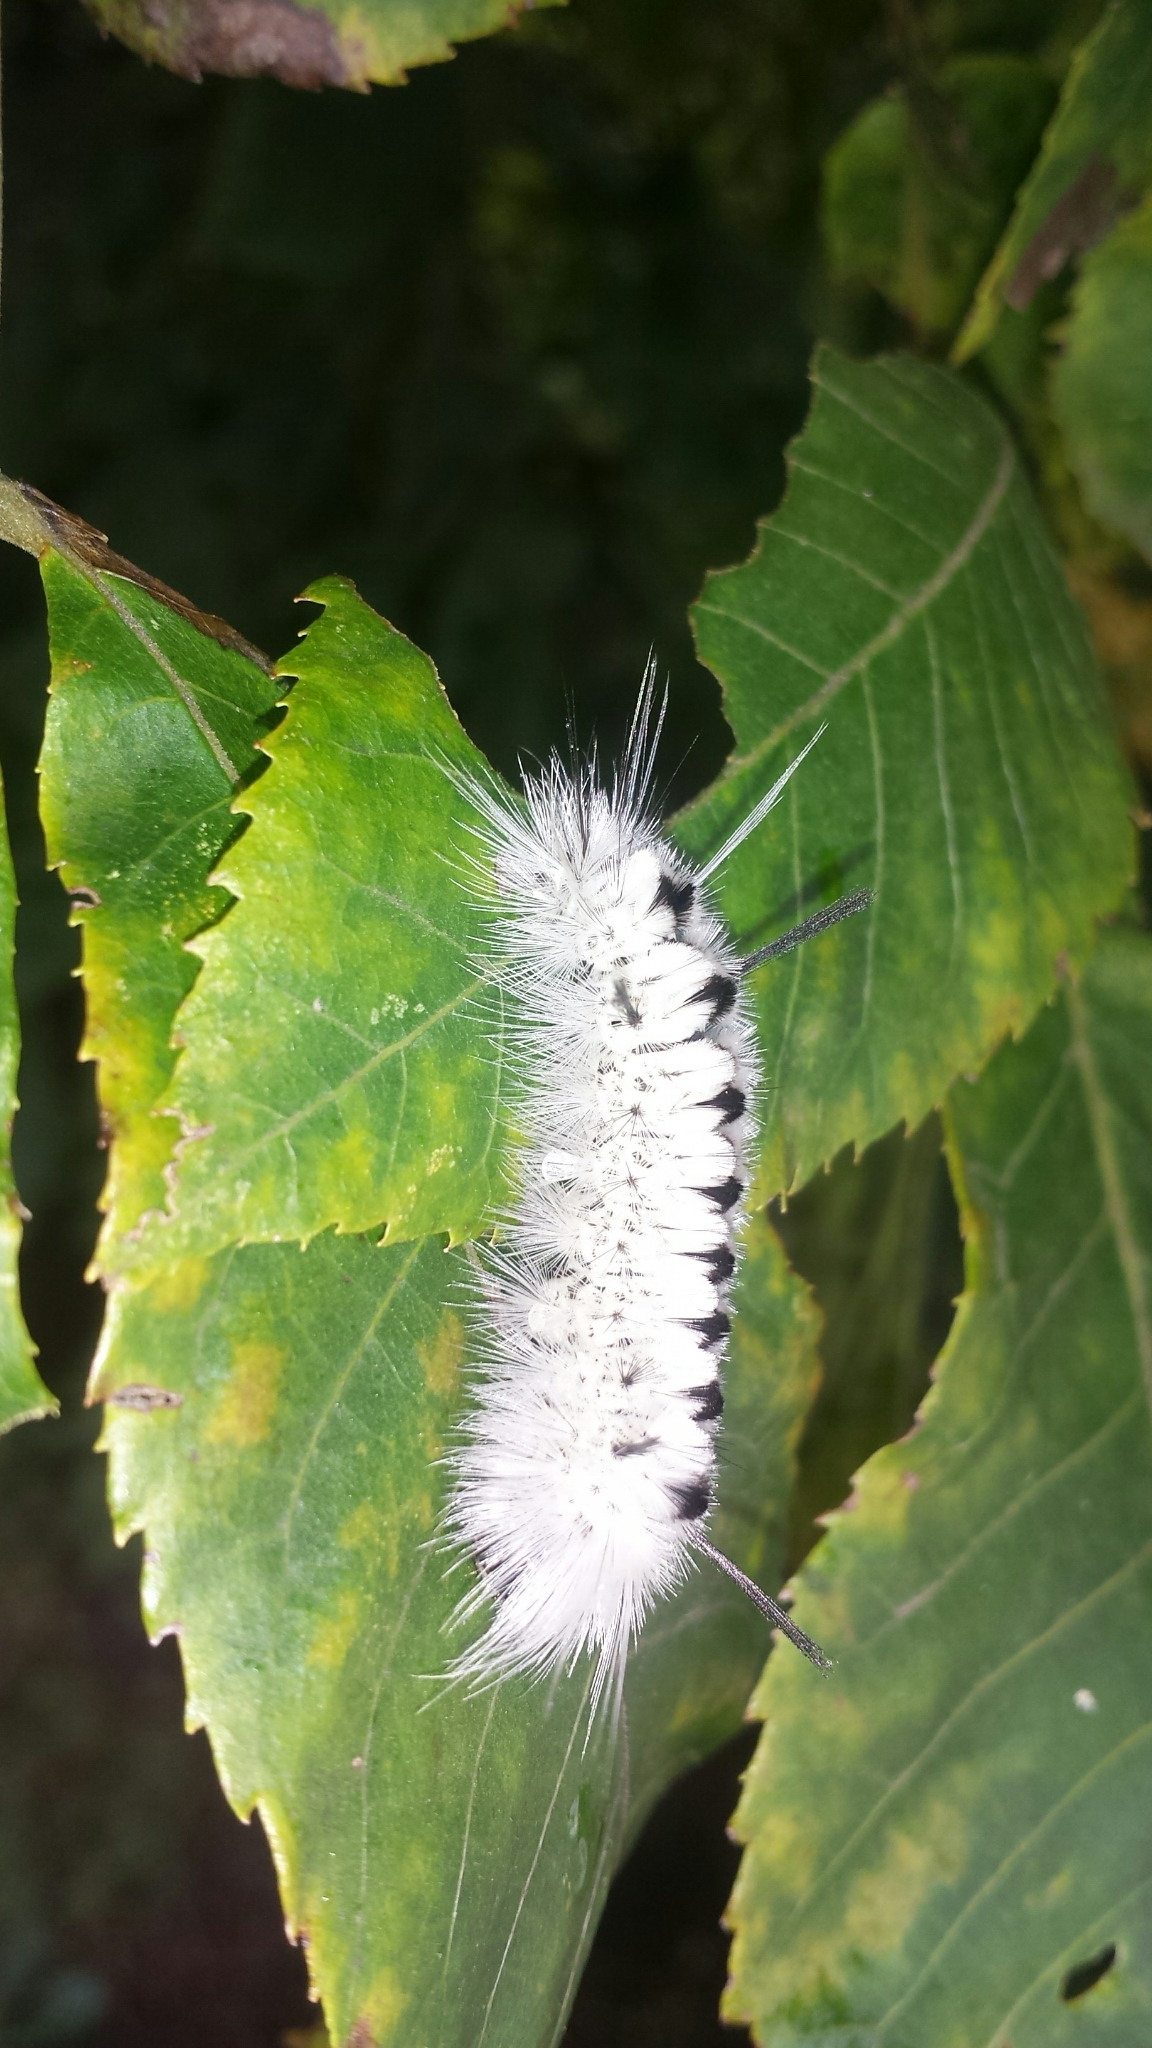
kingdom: Animalia
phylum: Arthropoda
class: Insecta
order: Lepidoptera
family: Erebidae
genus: Lophocampa
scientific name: Lophocampa caryae
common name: Hickory tussock moth
